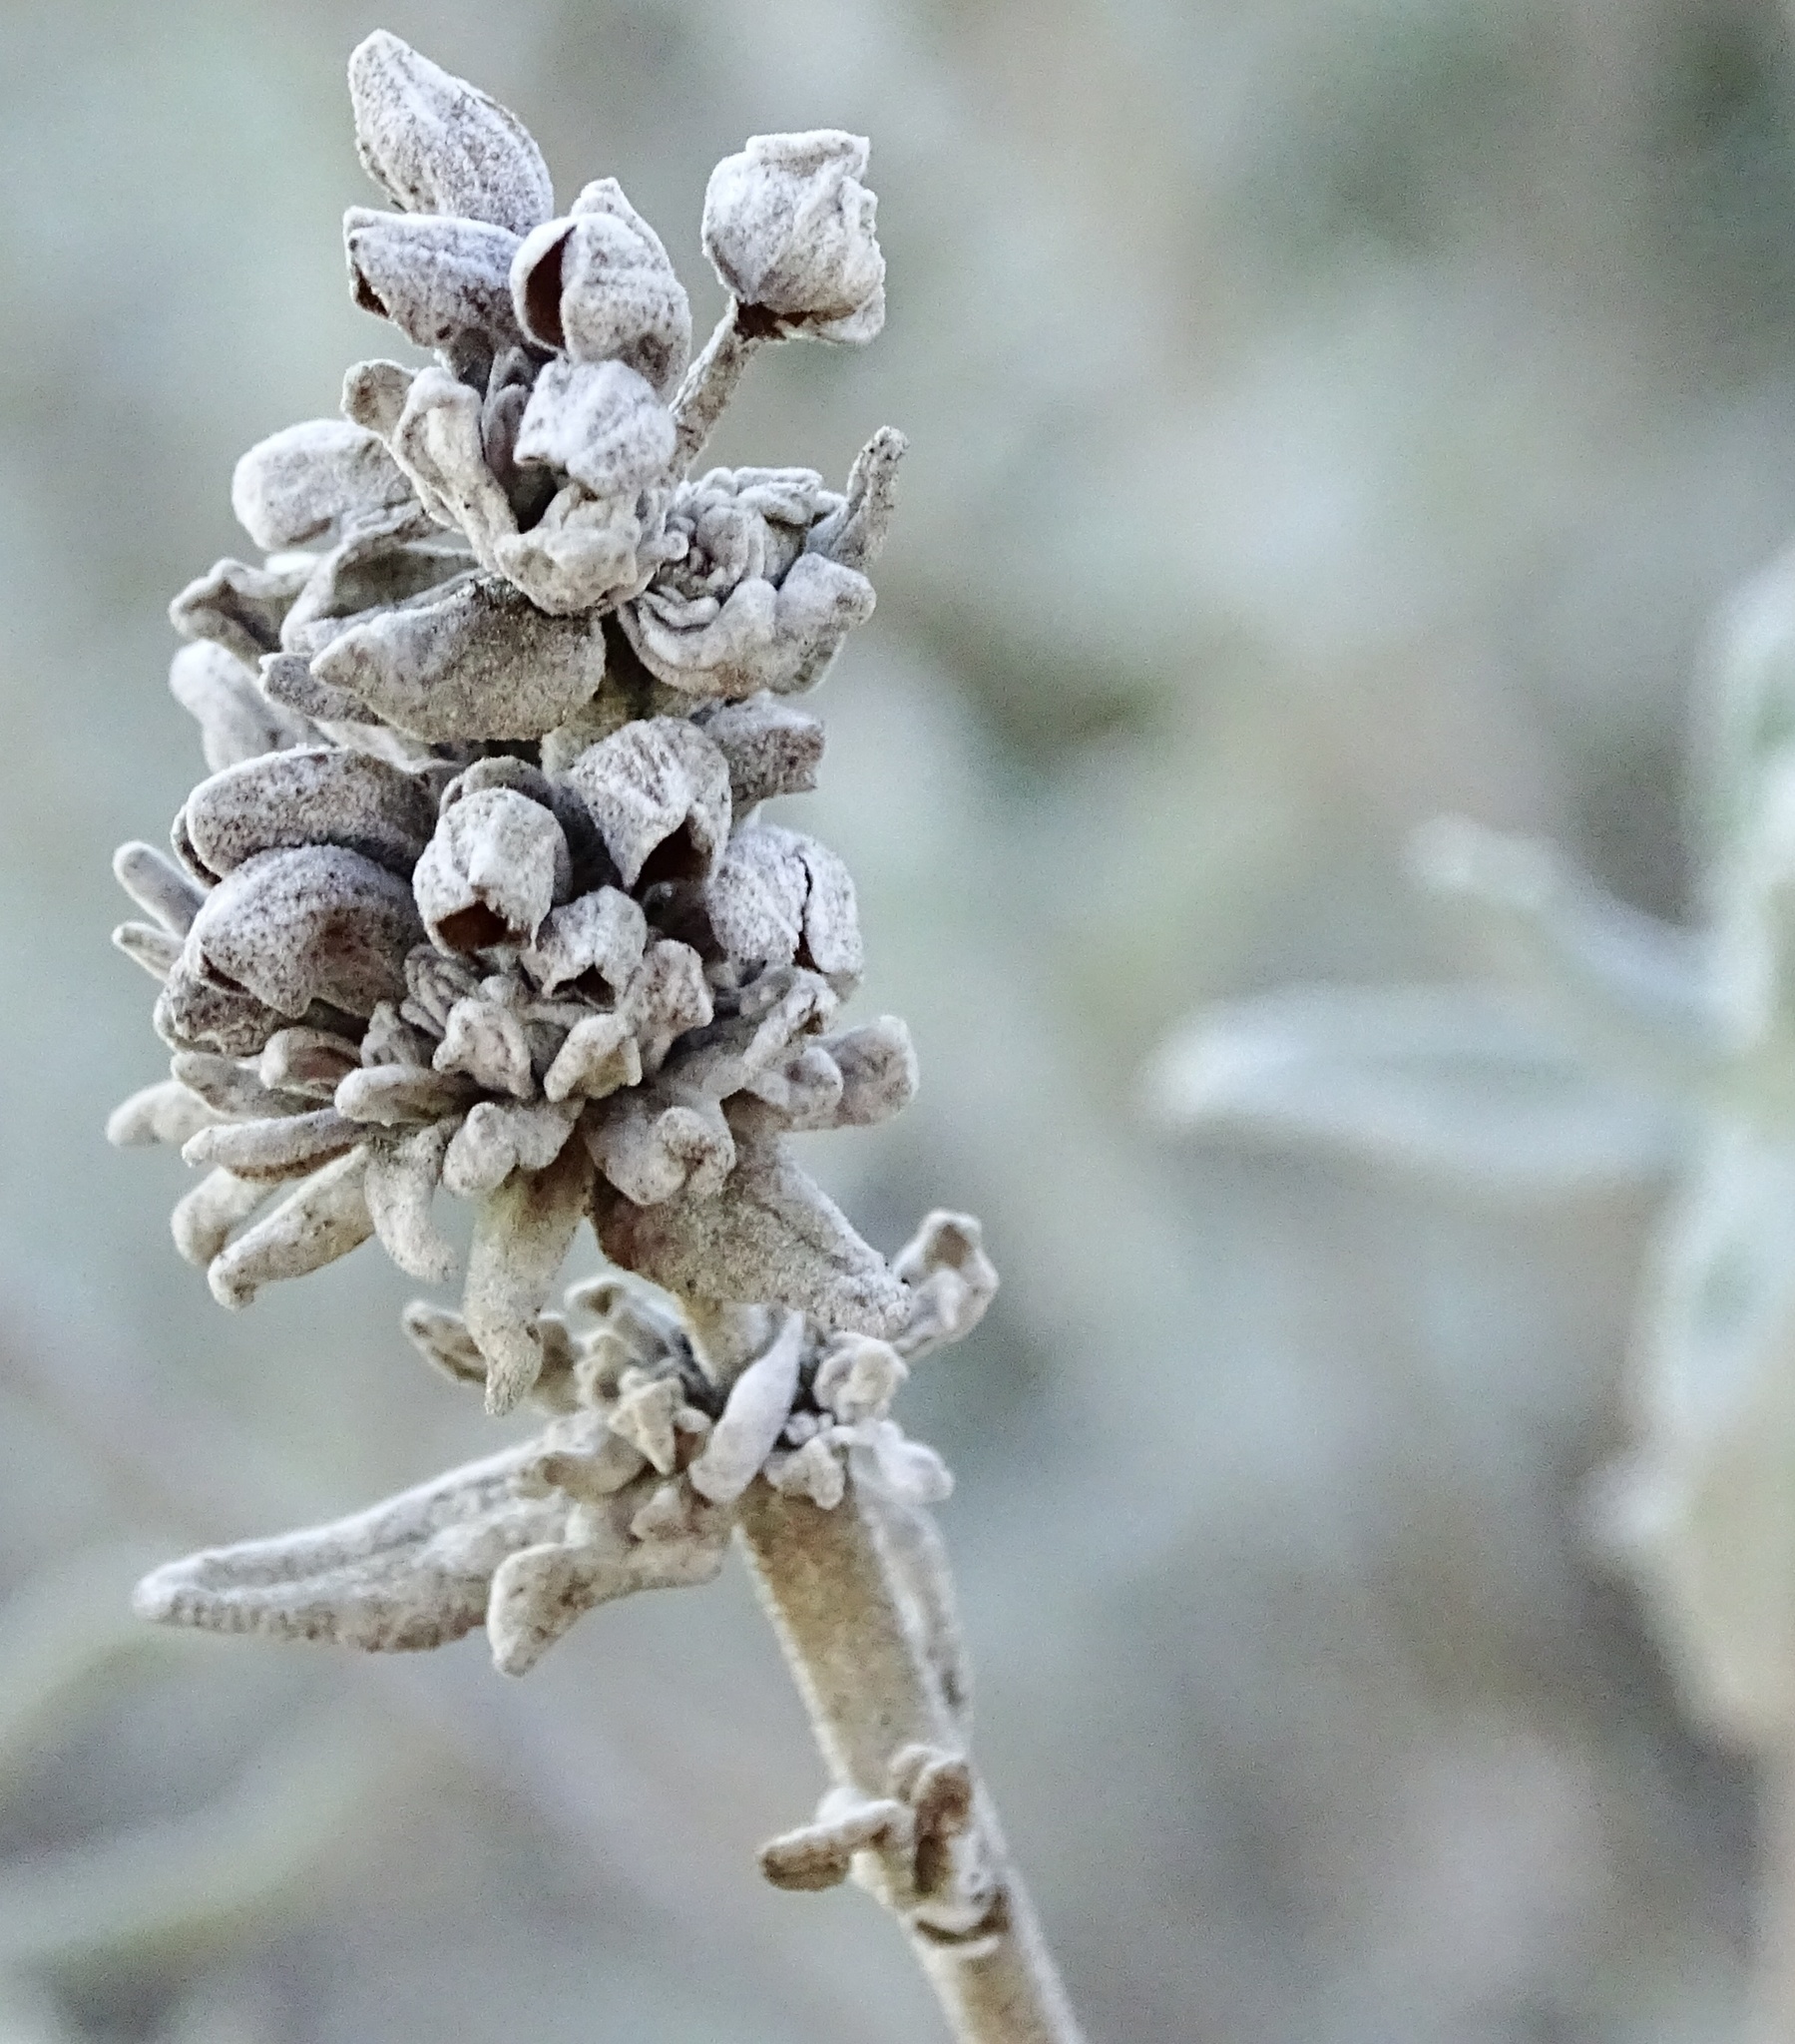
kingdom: Plantae
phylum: Tracheophyta
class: Magnoliopsida
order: Lamiales
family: Lamiaceae
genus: Salvia
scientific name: Salvia leucophylla
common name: Purple sage
